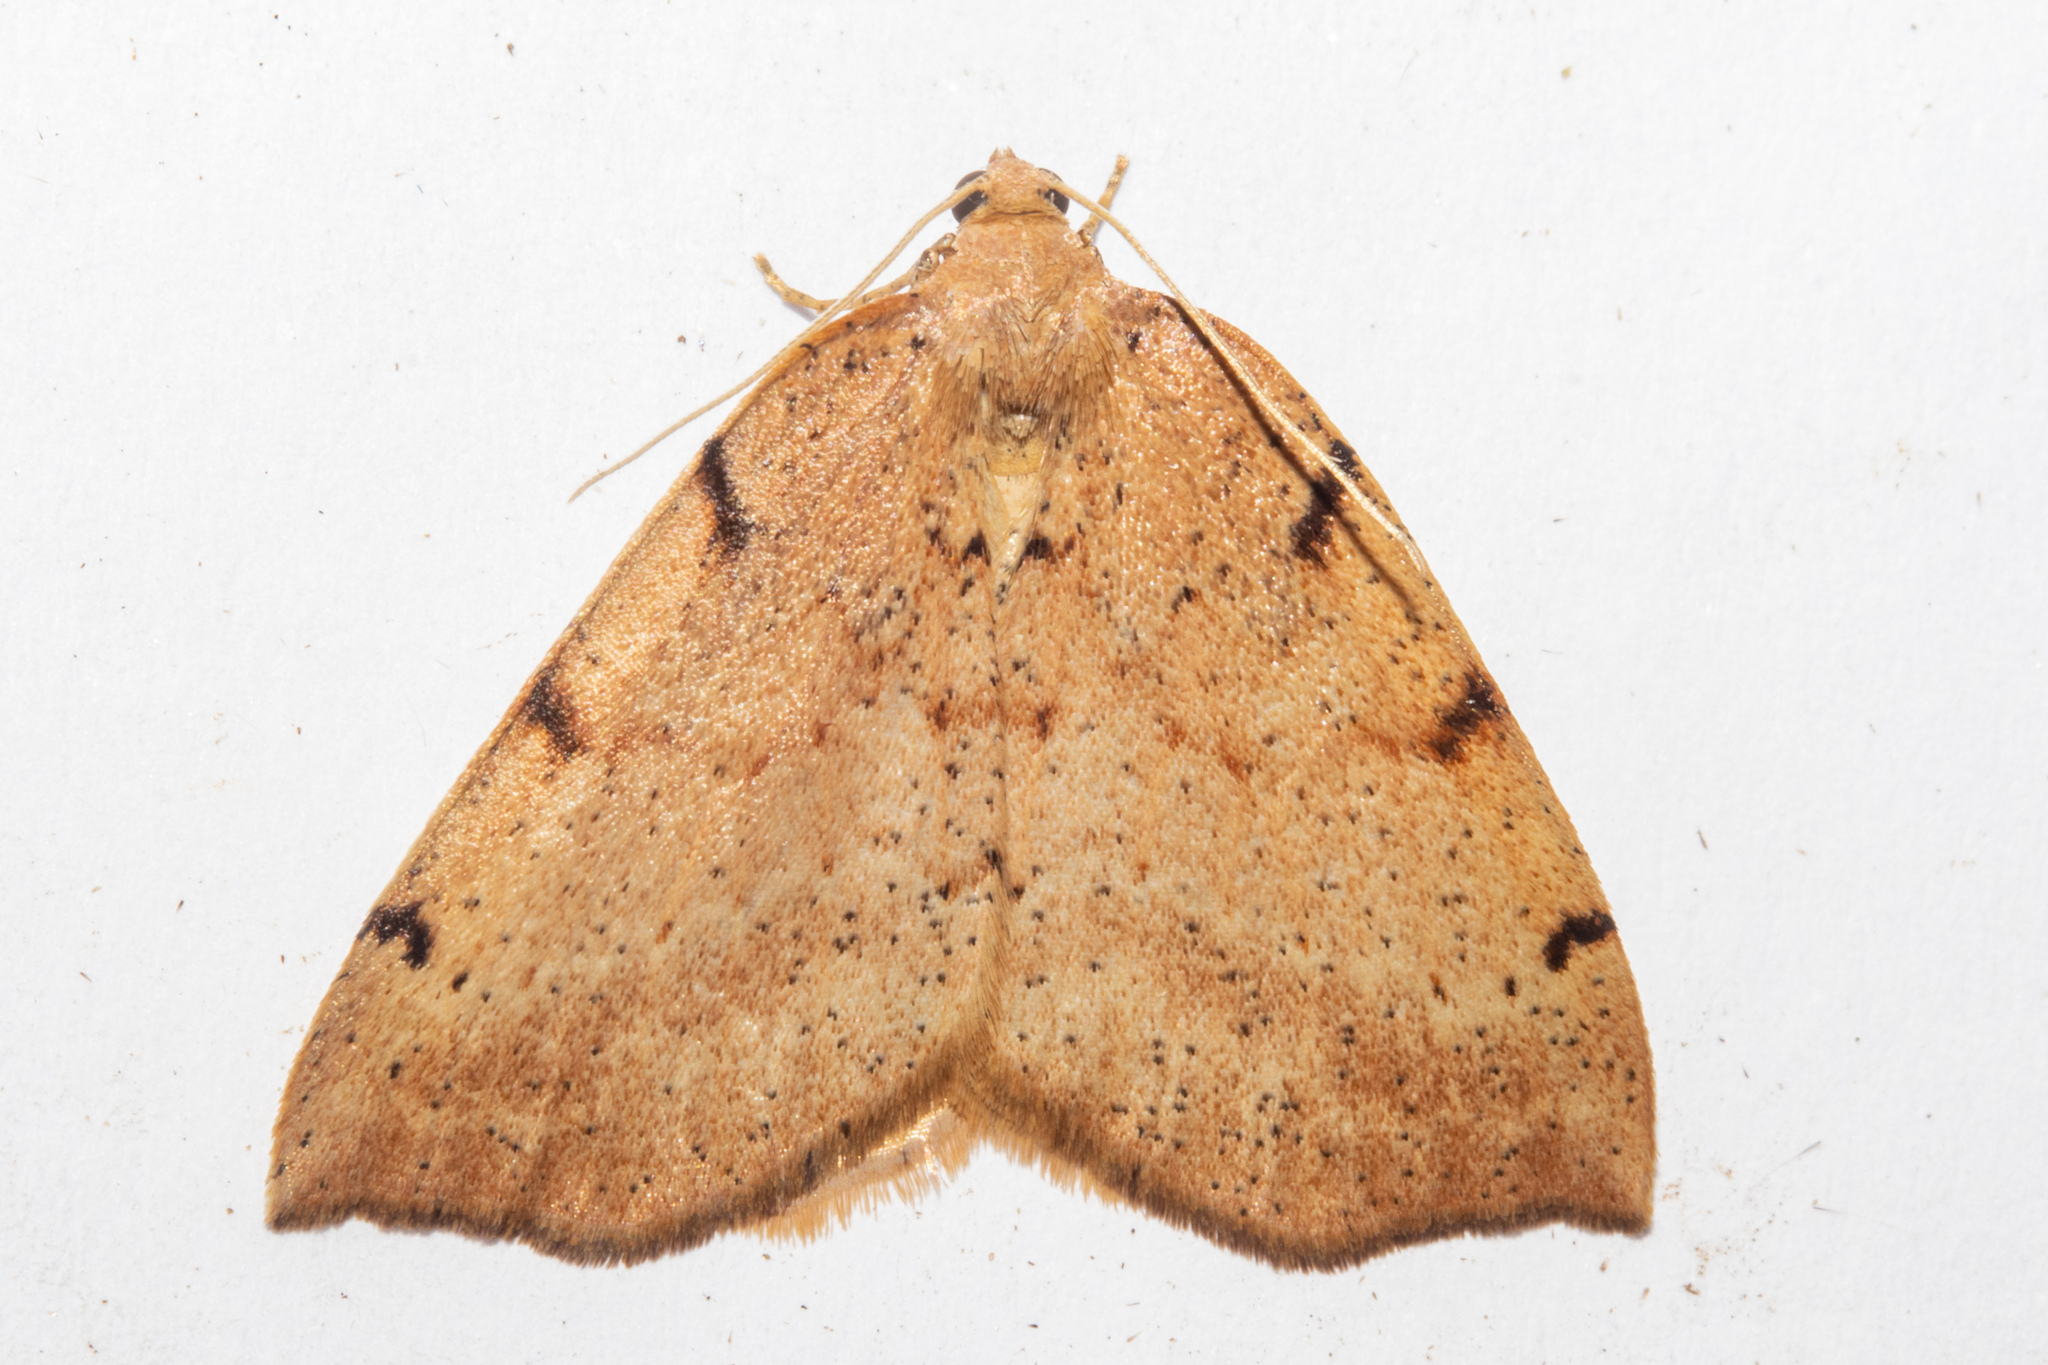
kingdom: Animalia
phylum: Arthropoda
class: Insecta
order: Lepidoptera
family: Geometridae
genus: Sestra
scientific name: Sestra humeraria
